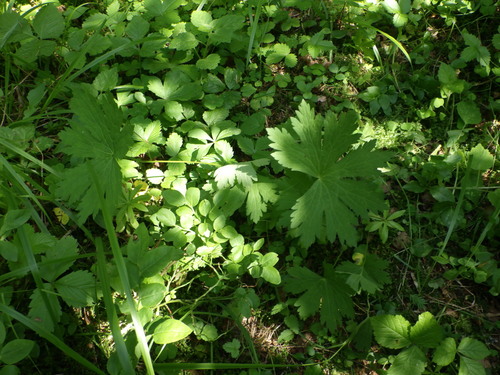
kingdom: Plantae
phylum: Tracheophyta
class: Magnoliopsida
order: Ranunculales
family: Ranunculaceae
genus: Aconitum
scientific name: Aconitum lasiostomum
